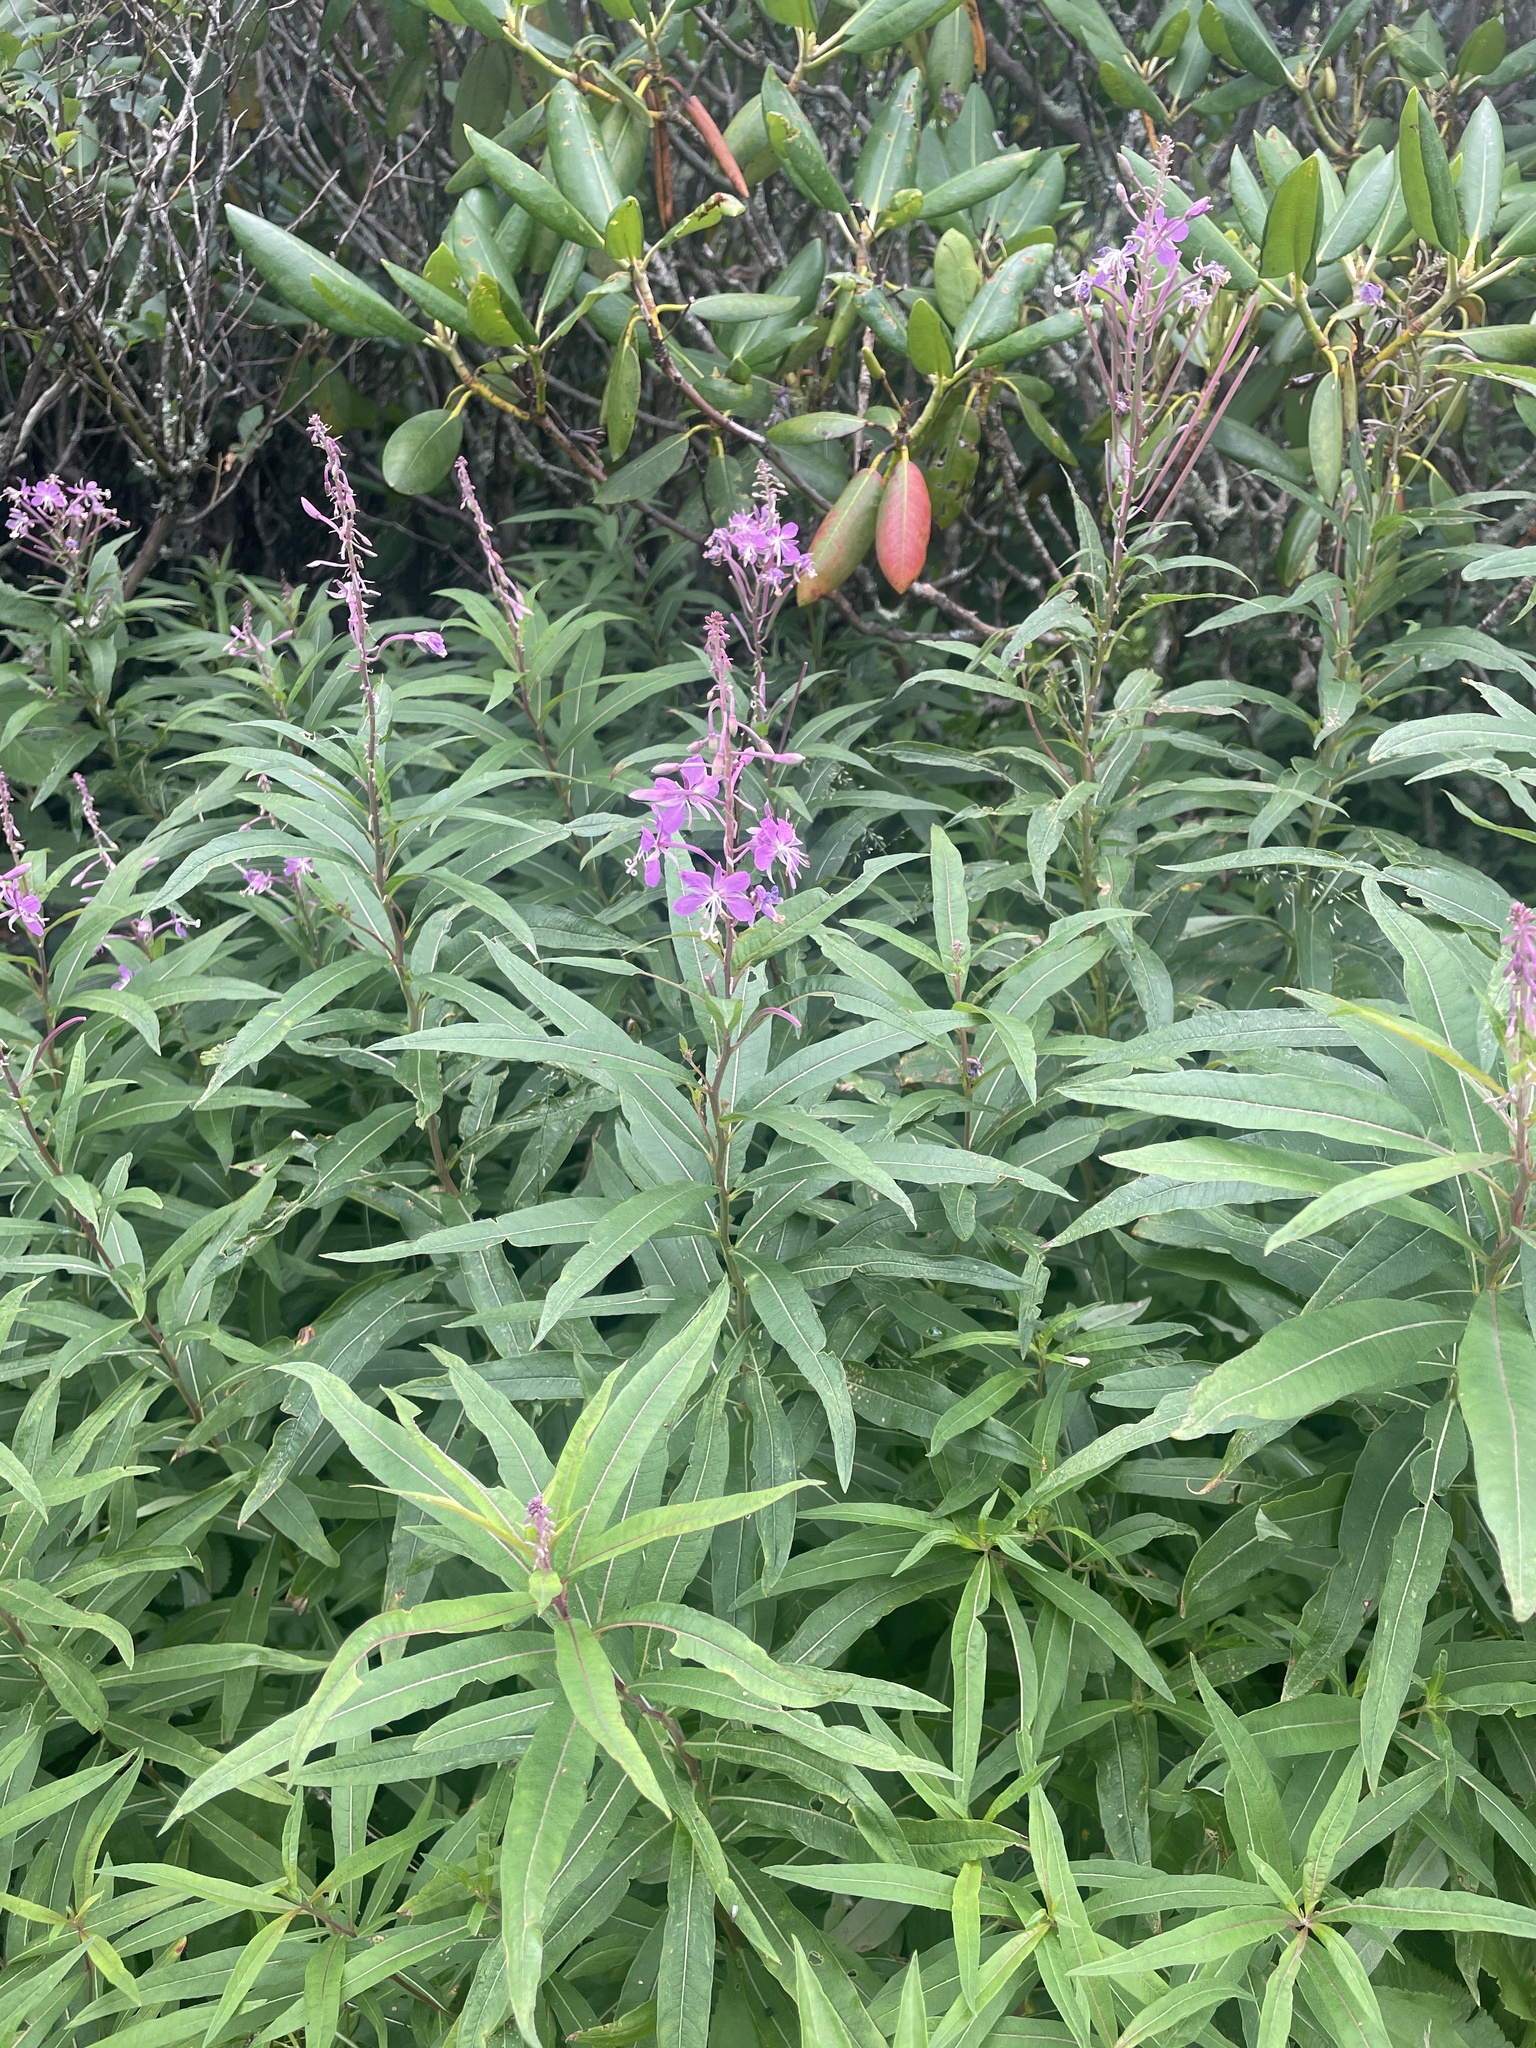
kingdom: Plantae
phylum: Tracheophyta
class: Magnoliopsida
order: Myrtales
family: Onagraceae
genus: Chamaenerion
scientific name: Chamaenerion angustifolium
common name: Fireweed
